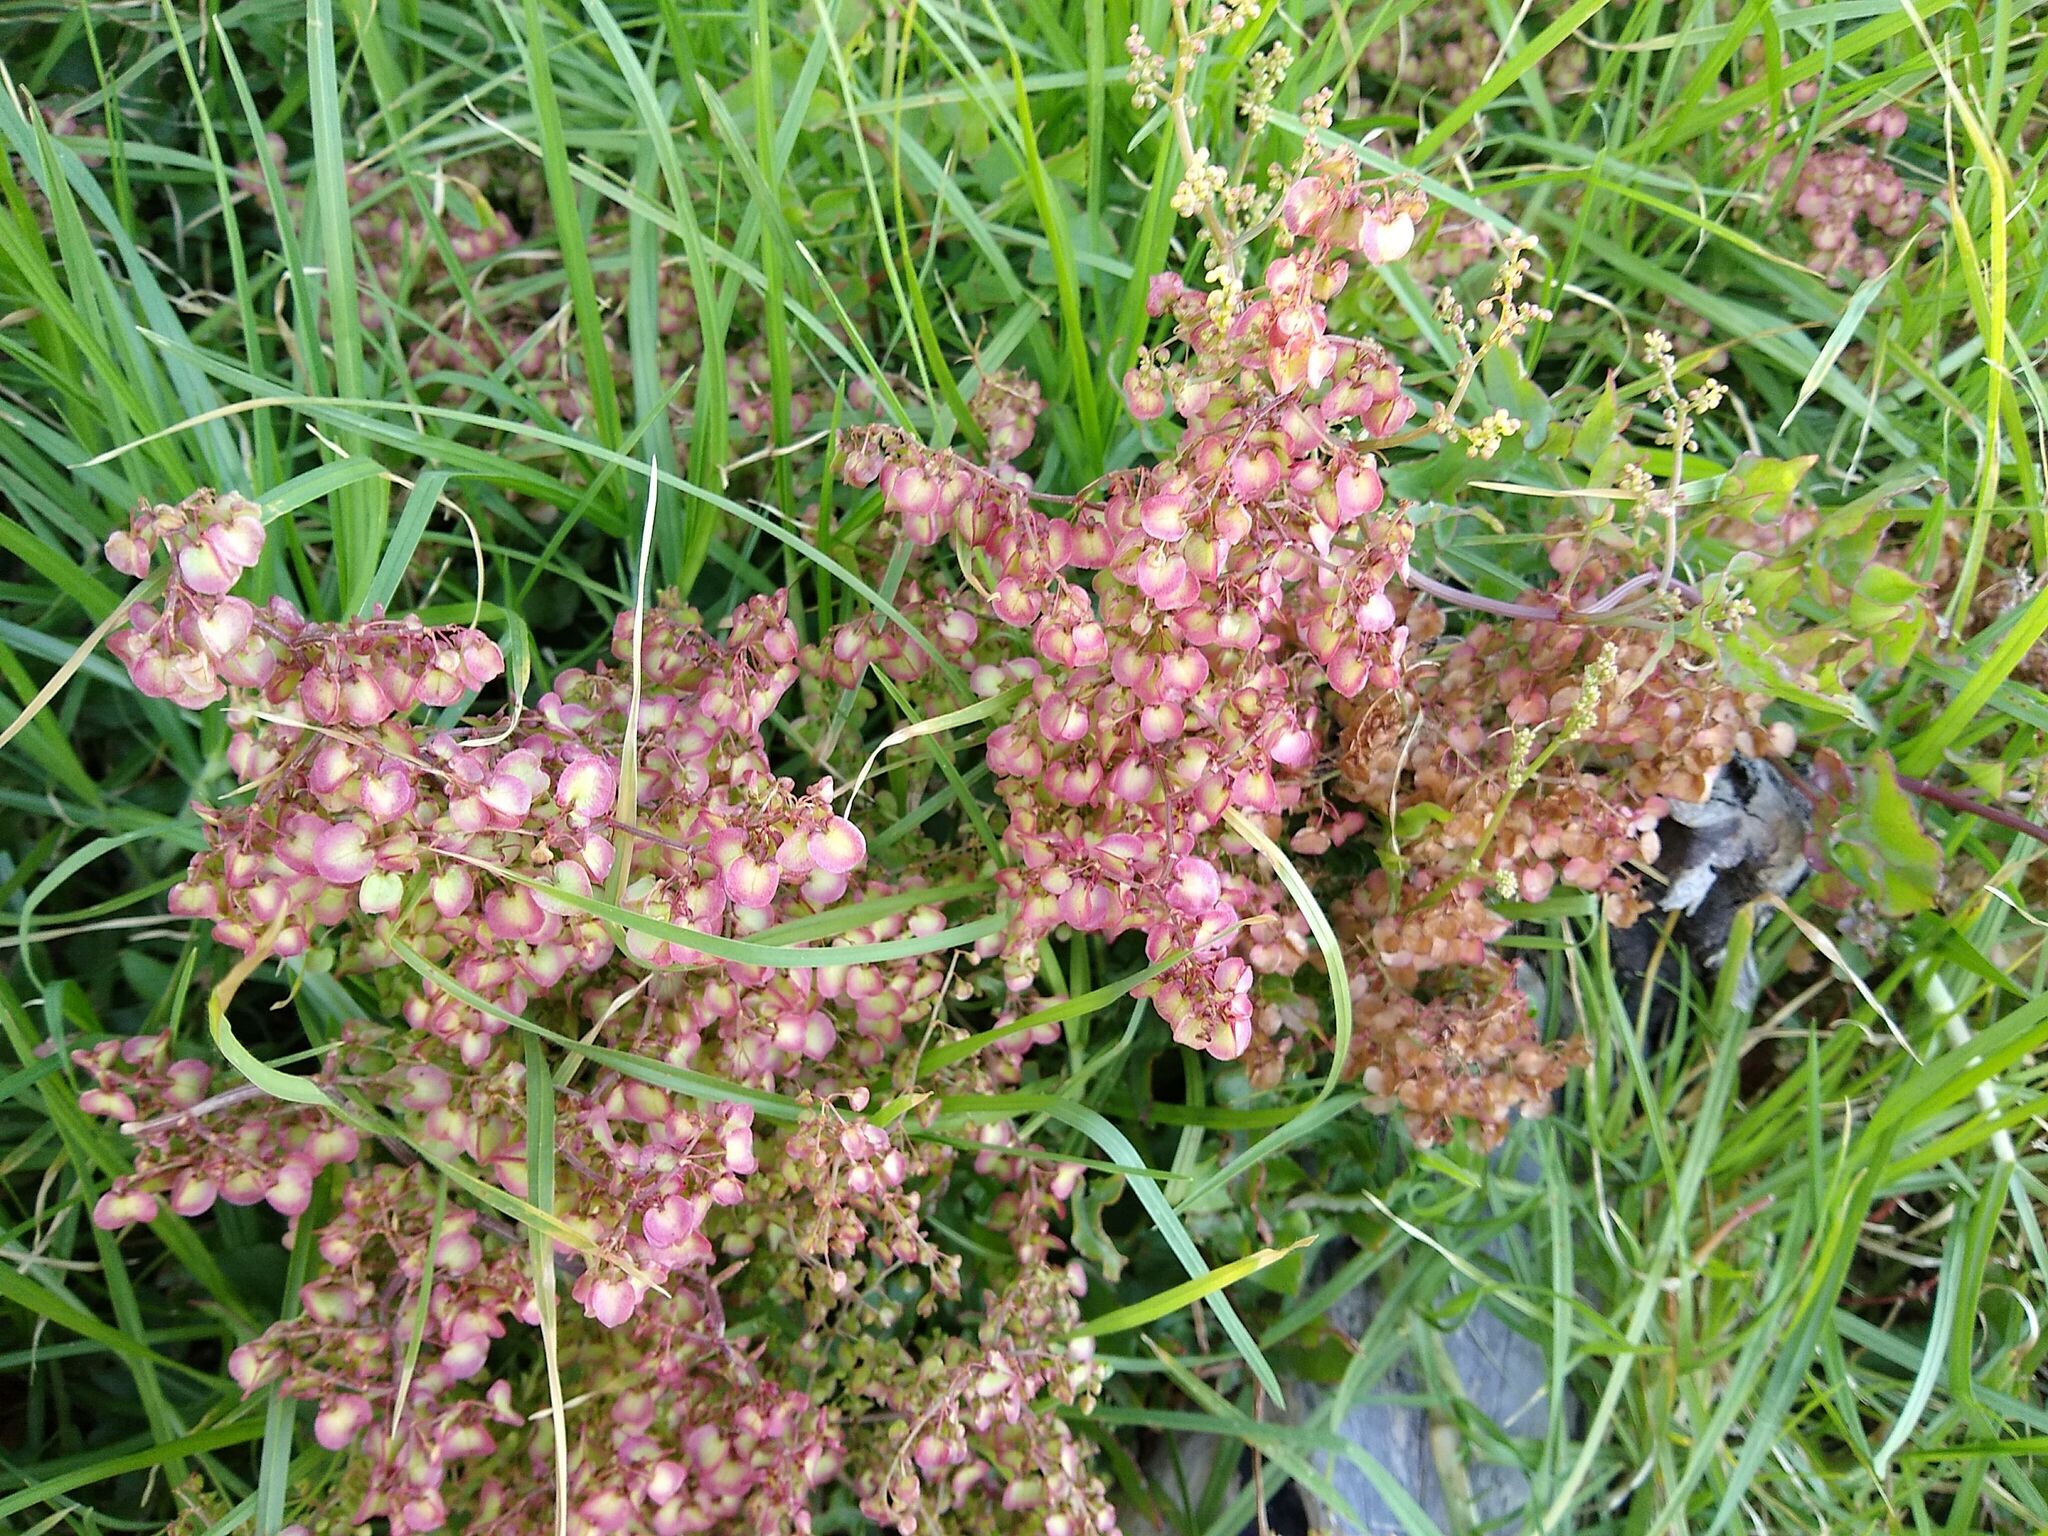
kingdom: Plantae
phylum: Tracheophyta
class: Magnoliopsida
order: Caryophyllales
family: Polygonaceae
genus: Rumex
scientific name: Rumex sagittatus
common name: Climbing dock
